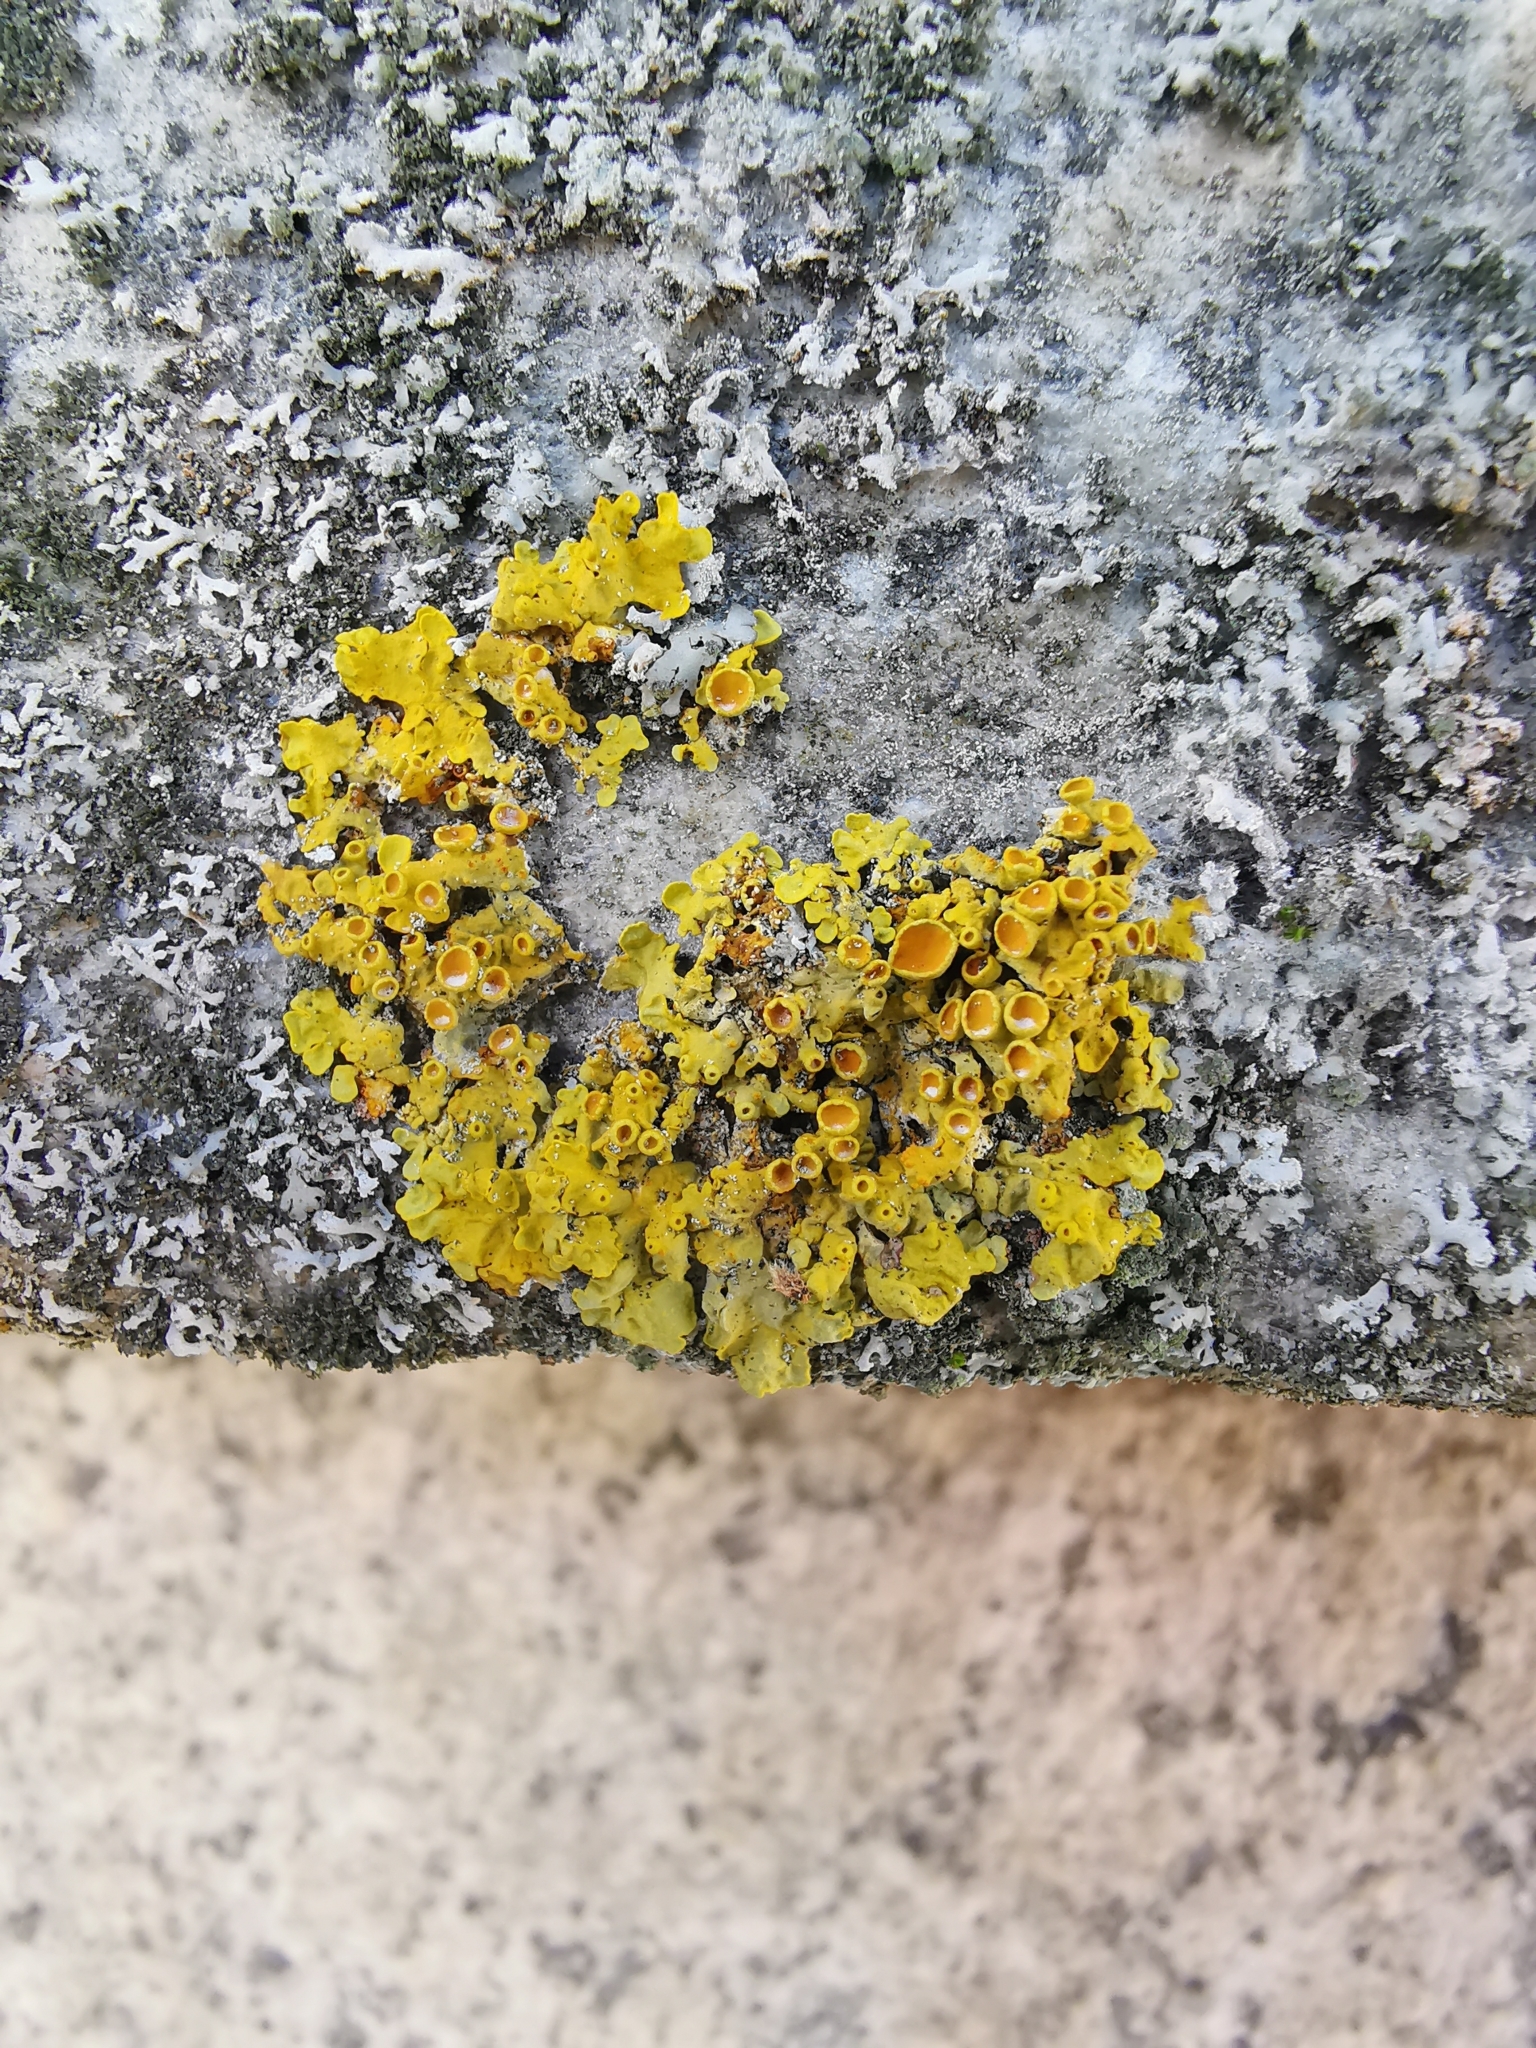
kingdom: Fungi
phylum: Ascomycota
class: Lecanoromycetes
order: Teloschistales
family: Teloschistaceae
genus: Xanthoria
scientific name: Xanthoria parietina
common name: Common orange lichen
